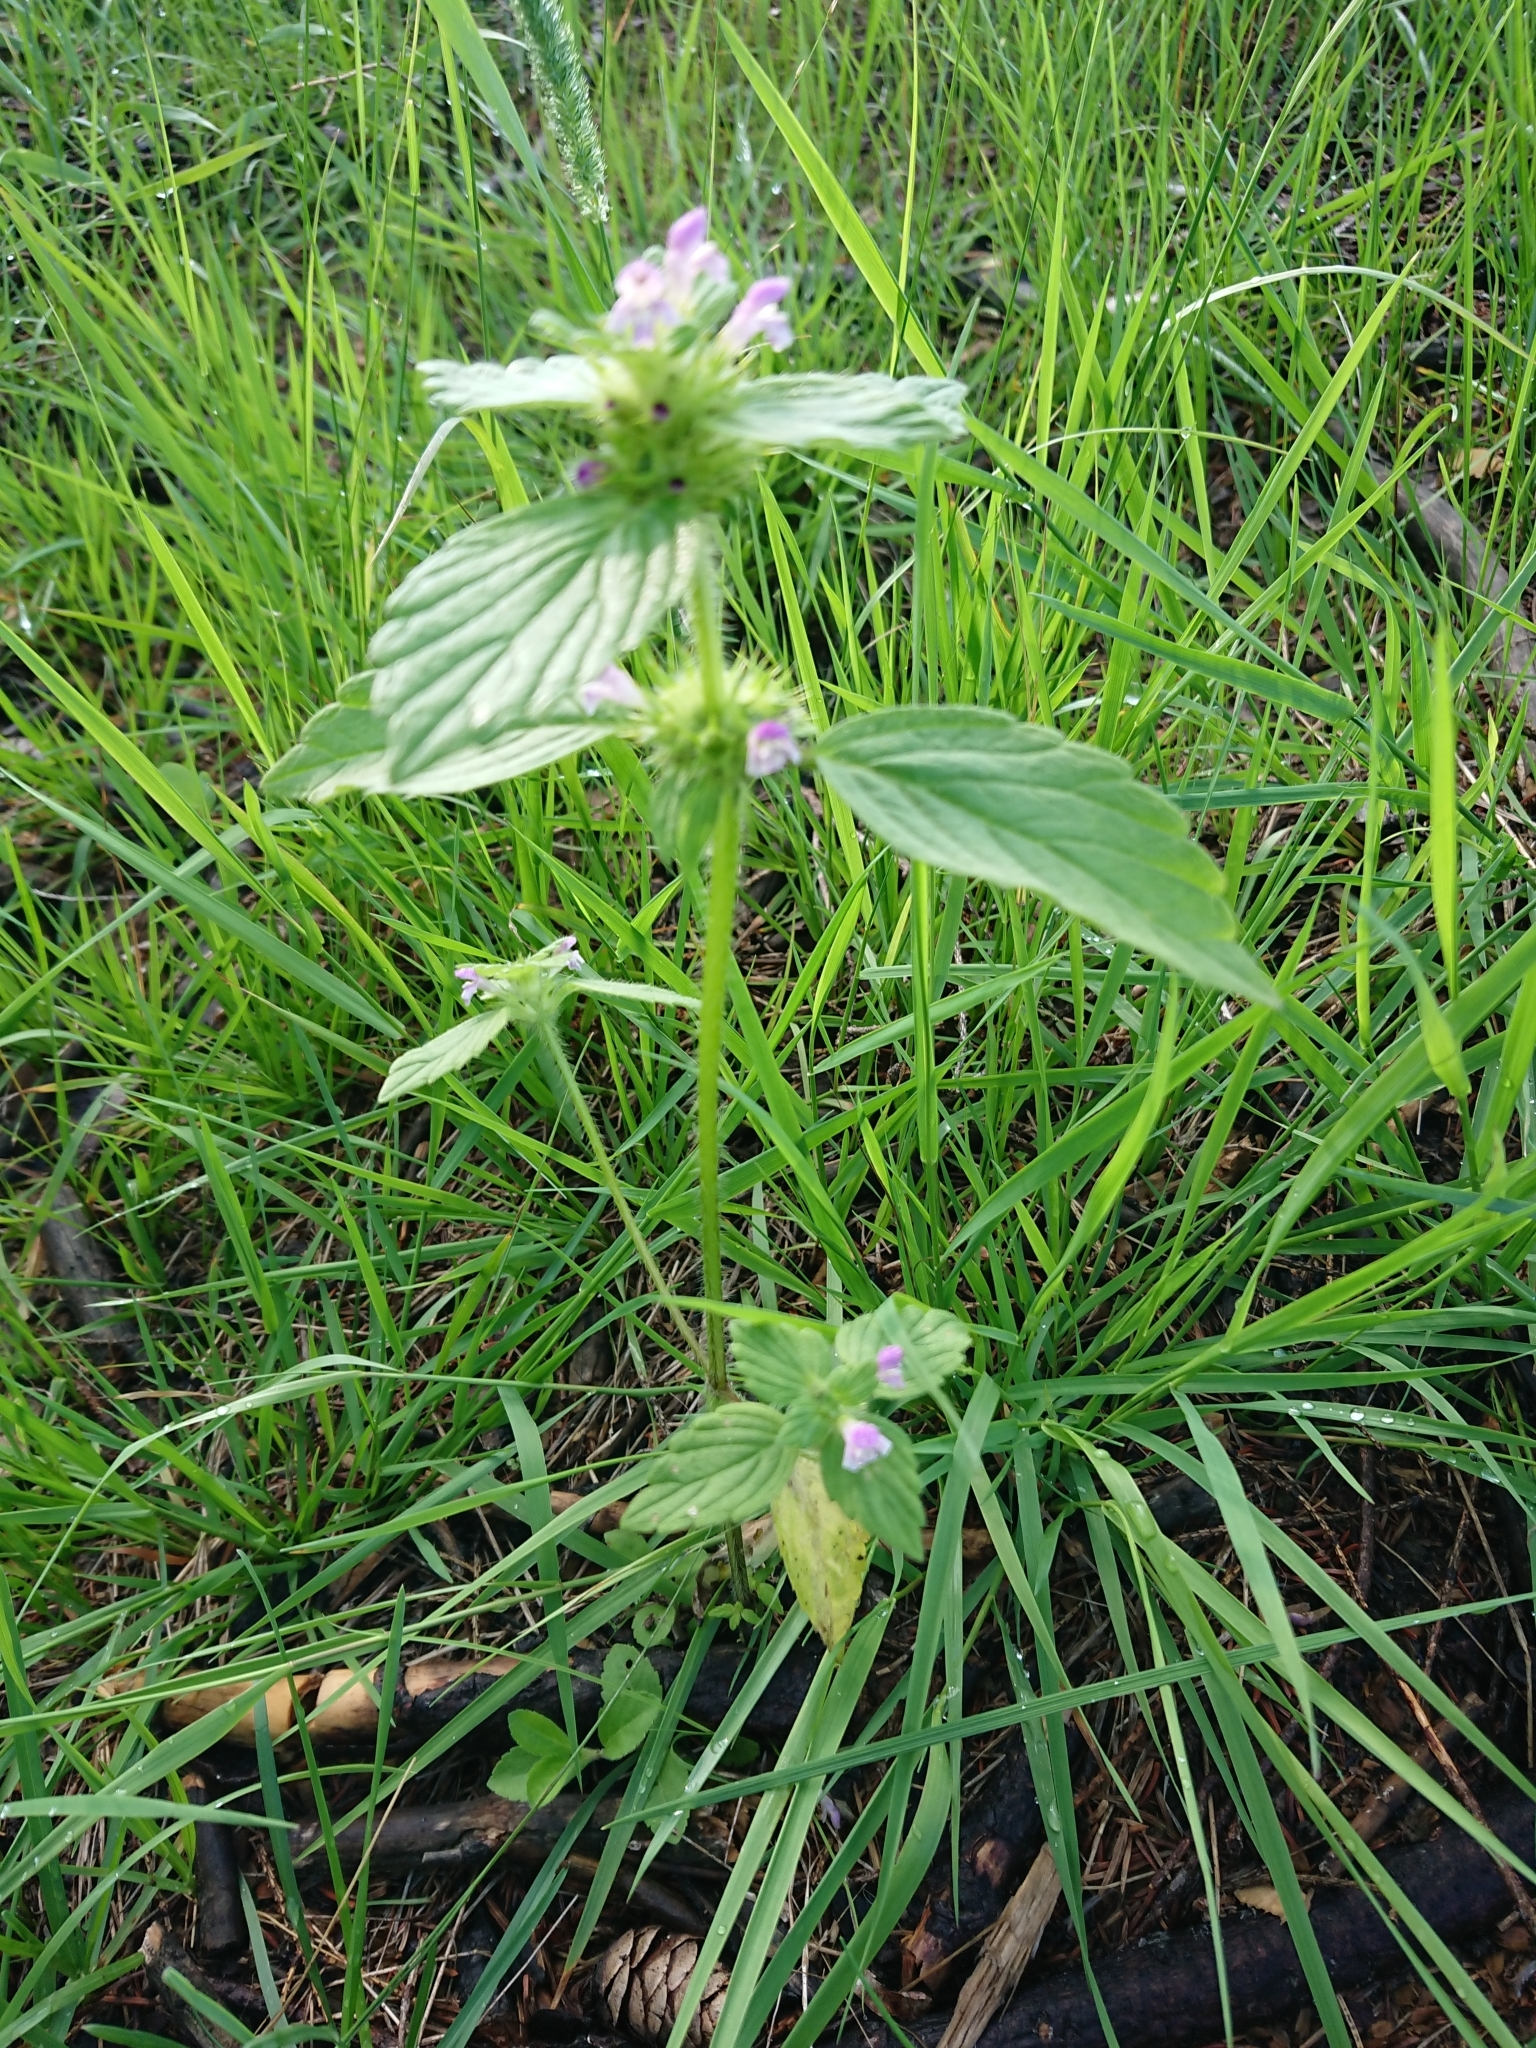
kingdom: Plantae
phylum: Tracheophyta
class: Magnoliopsida
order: Lamiales
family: Lamiaceae
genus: Galeopsis
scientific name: Galeopsis bifida
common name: Bifid hemp-nettle
